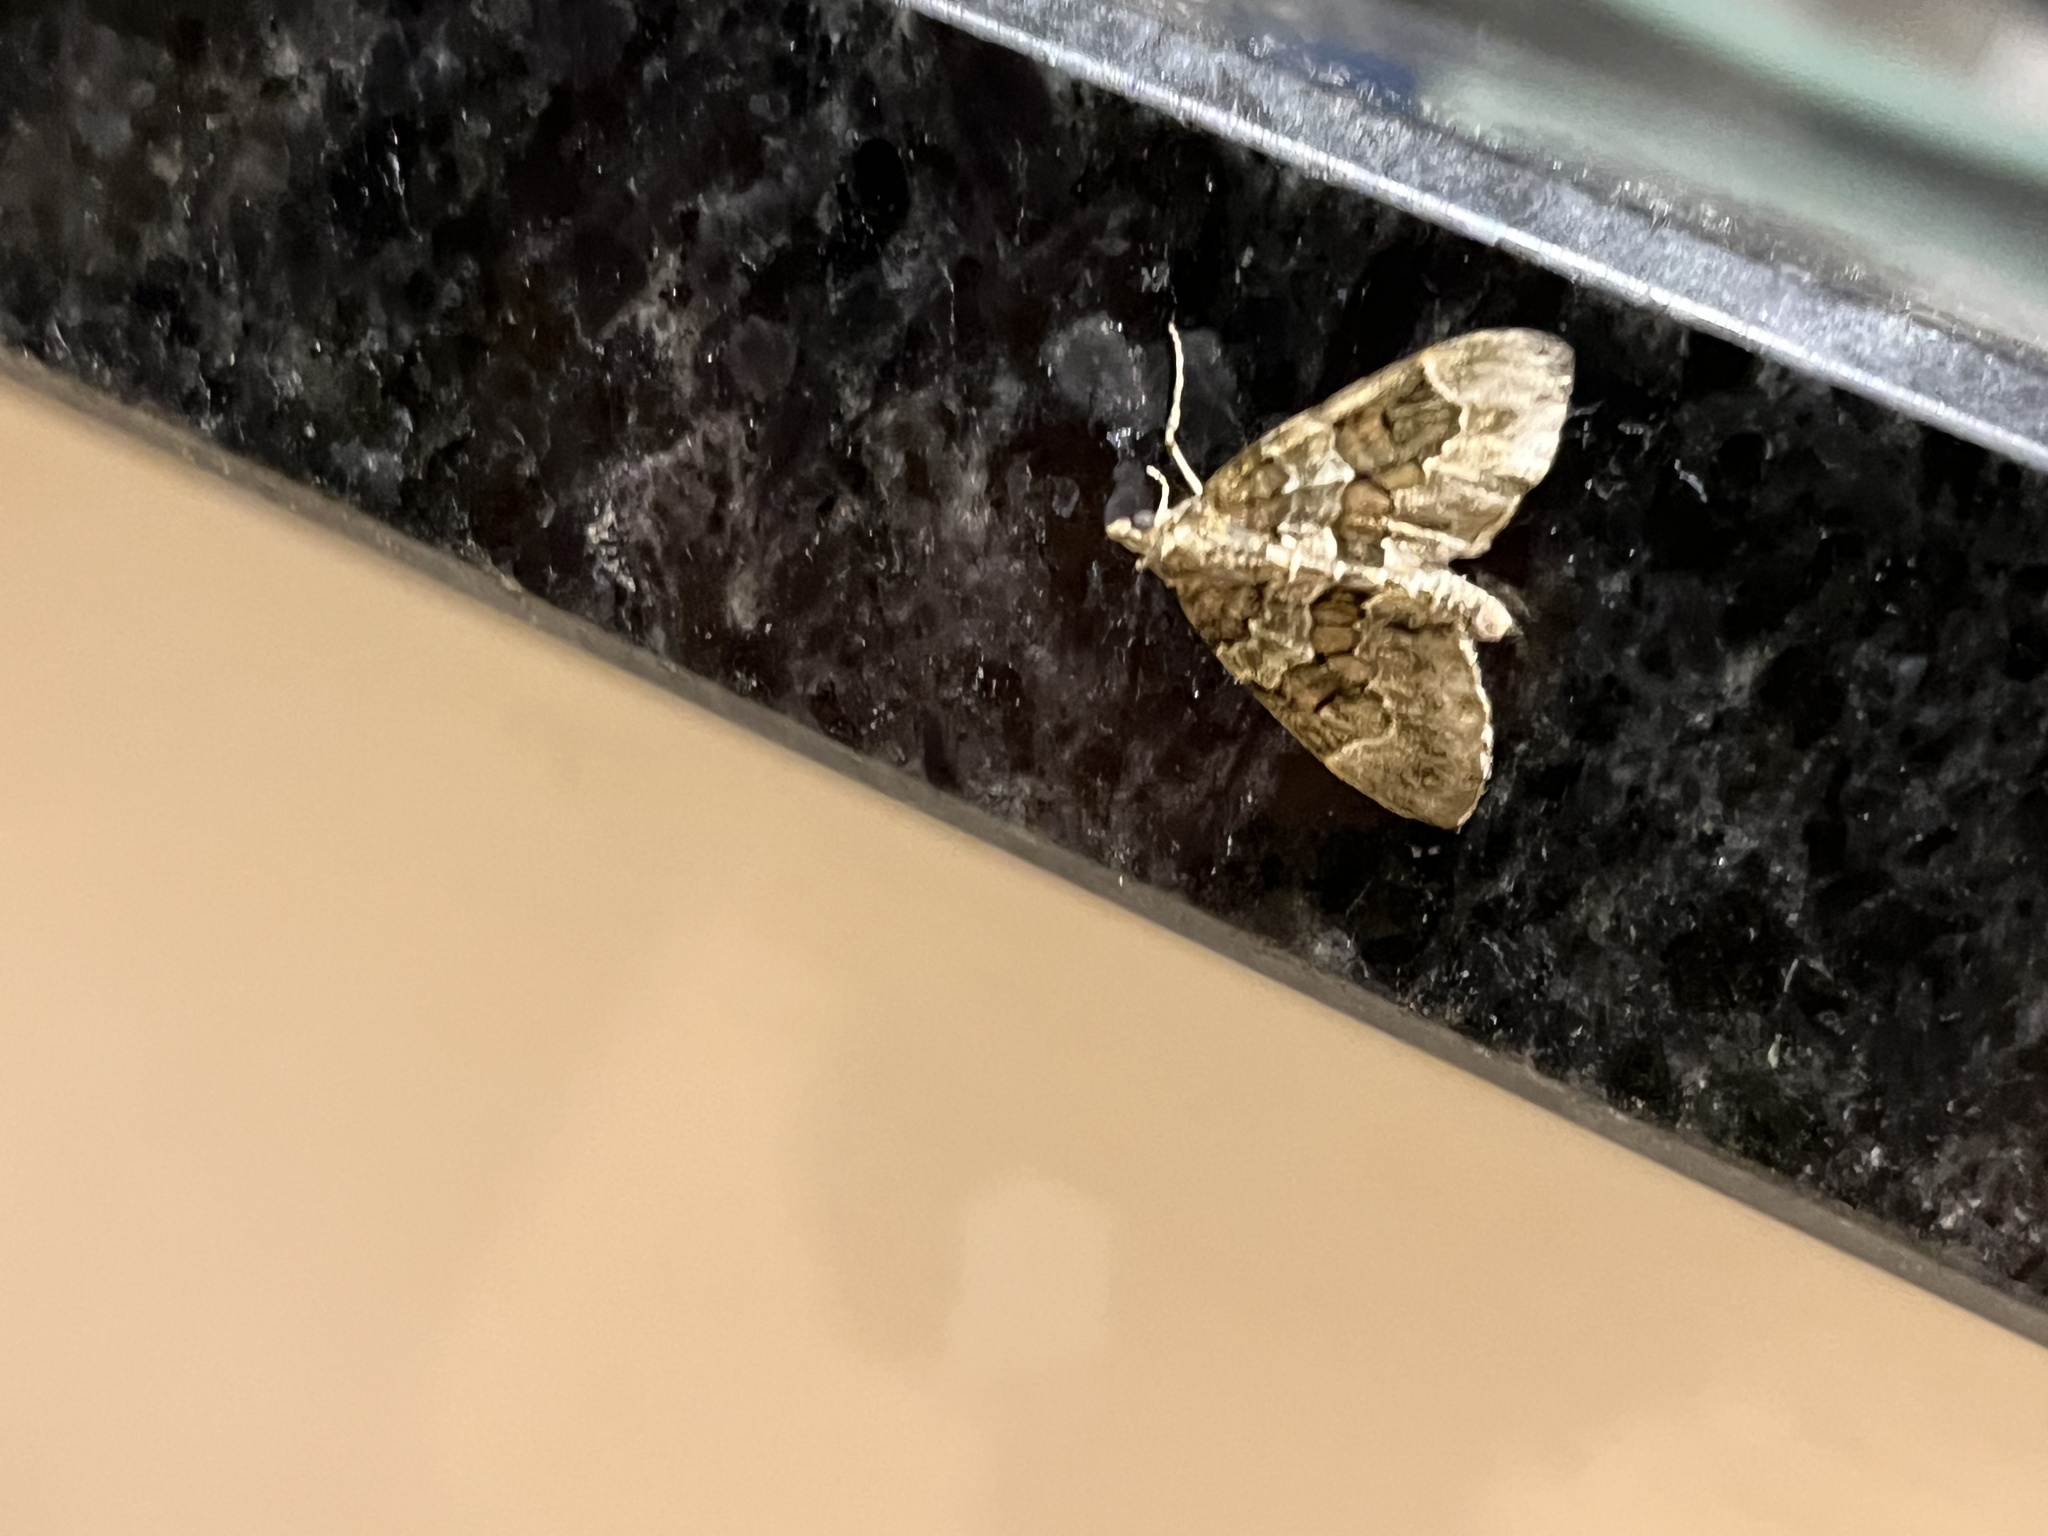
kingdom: Animalia
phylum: Arthropoda
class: Insecta
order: Lepidoptera
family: Geometridae
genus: Thera
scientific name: Thera obeliscata
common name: Grey pine carpet
